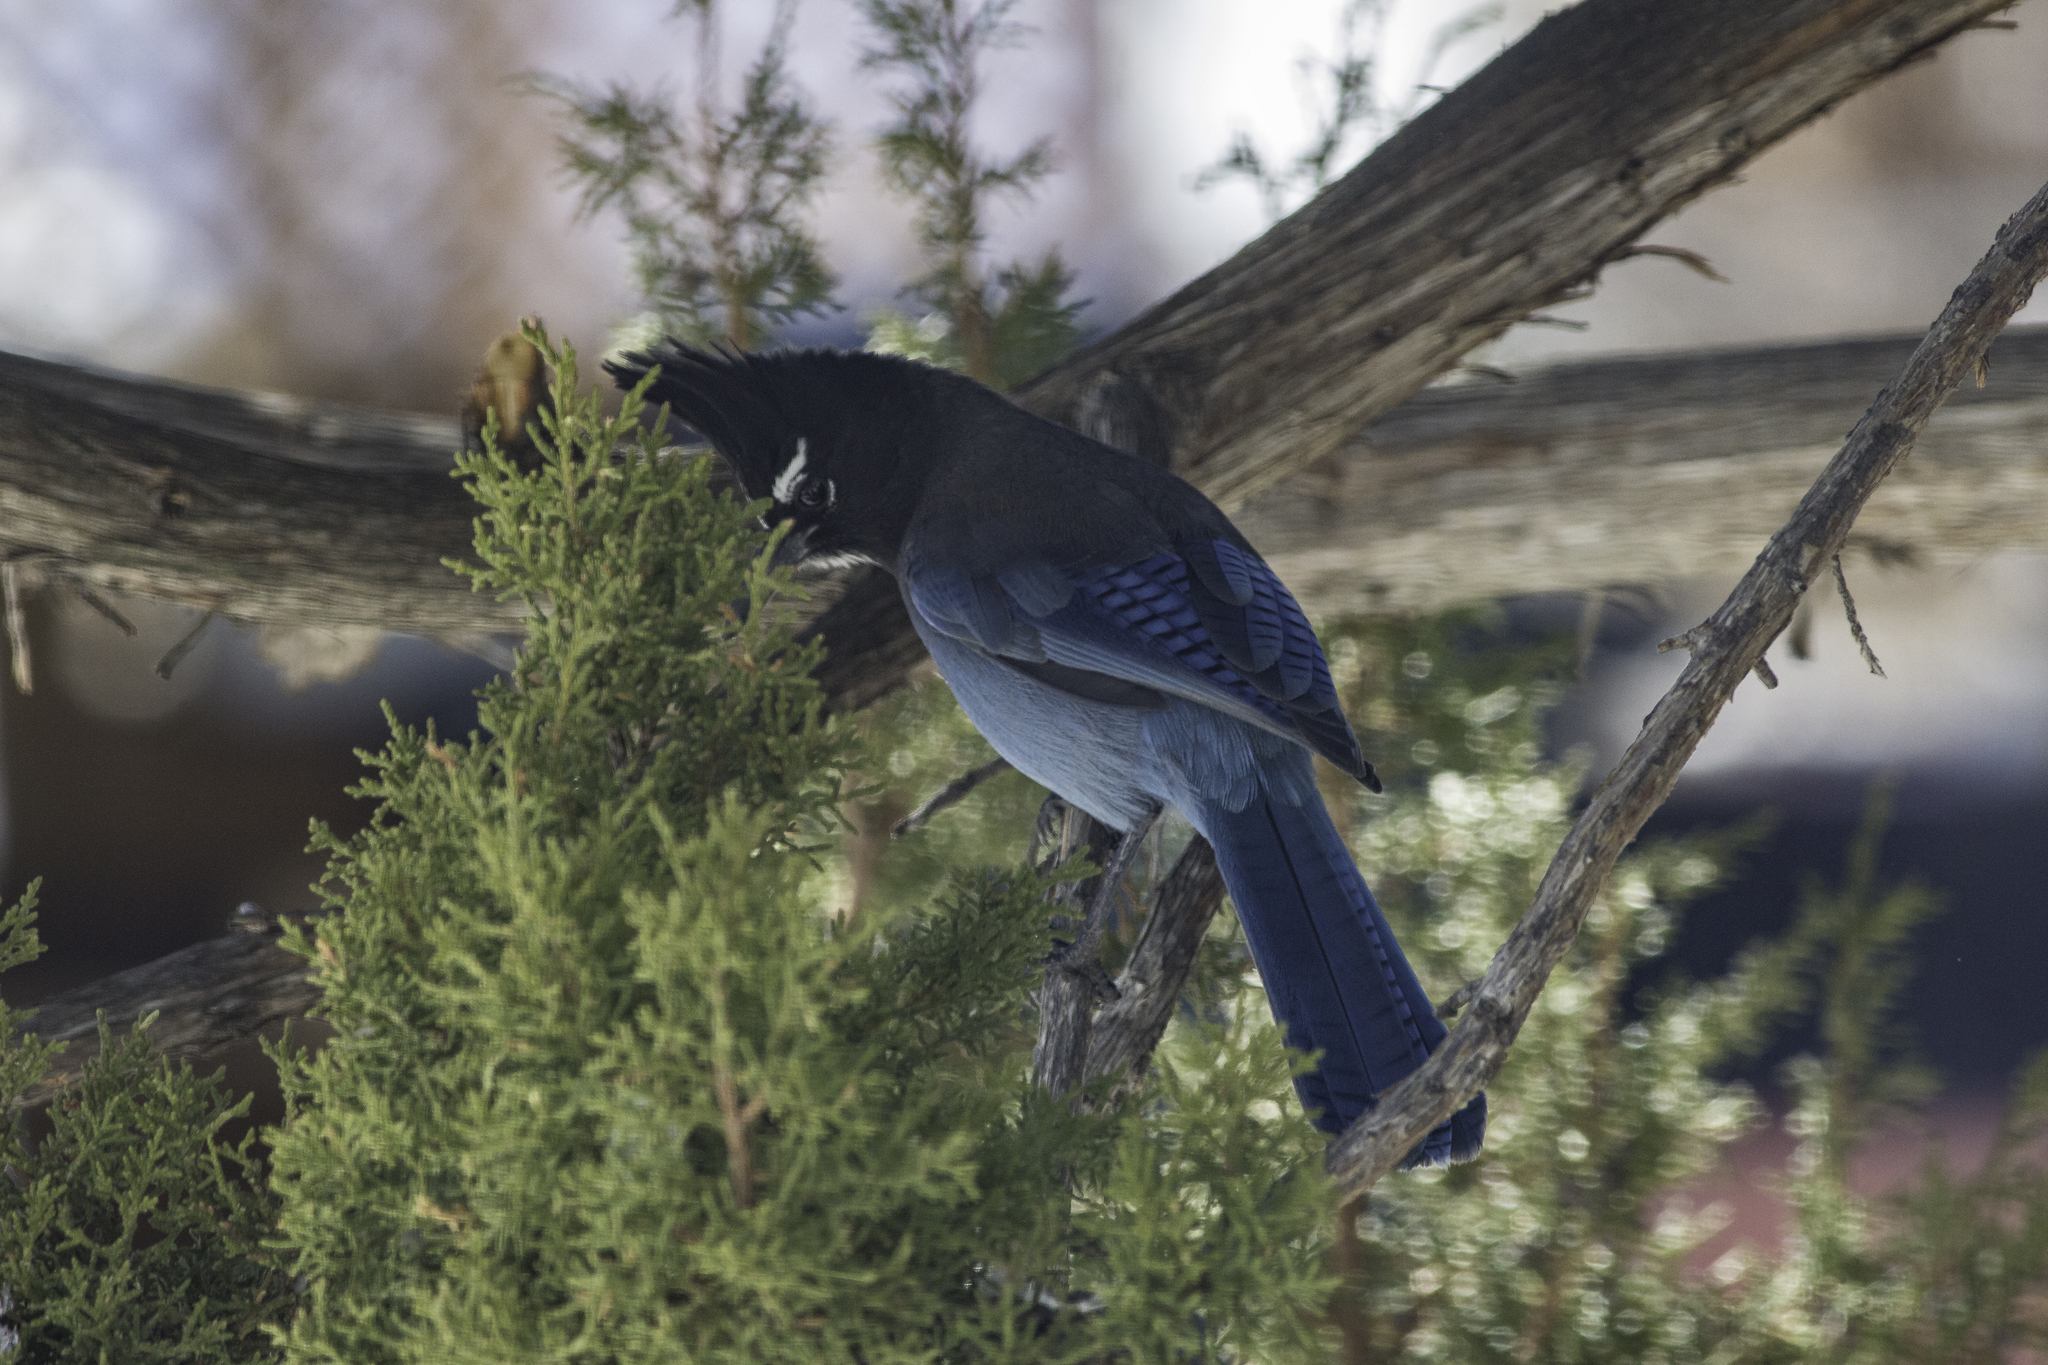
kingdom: Animalia
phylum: Chordata
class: Aves
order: Passeriformes
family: Corvidae
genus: Cyanocitta
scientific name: Cyanocitta stelleri
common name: Steller's jay
